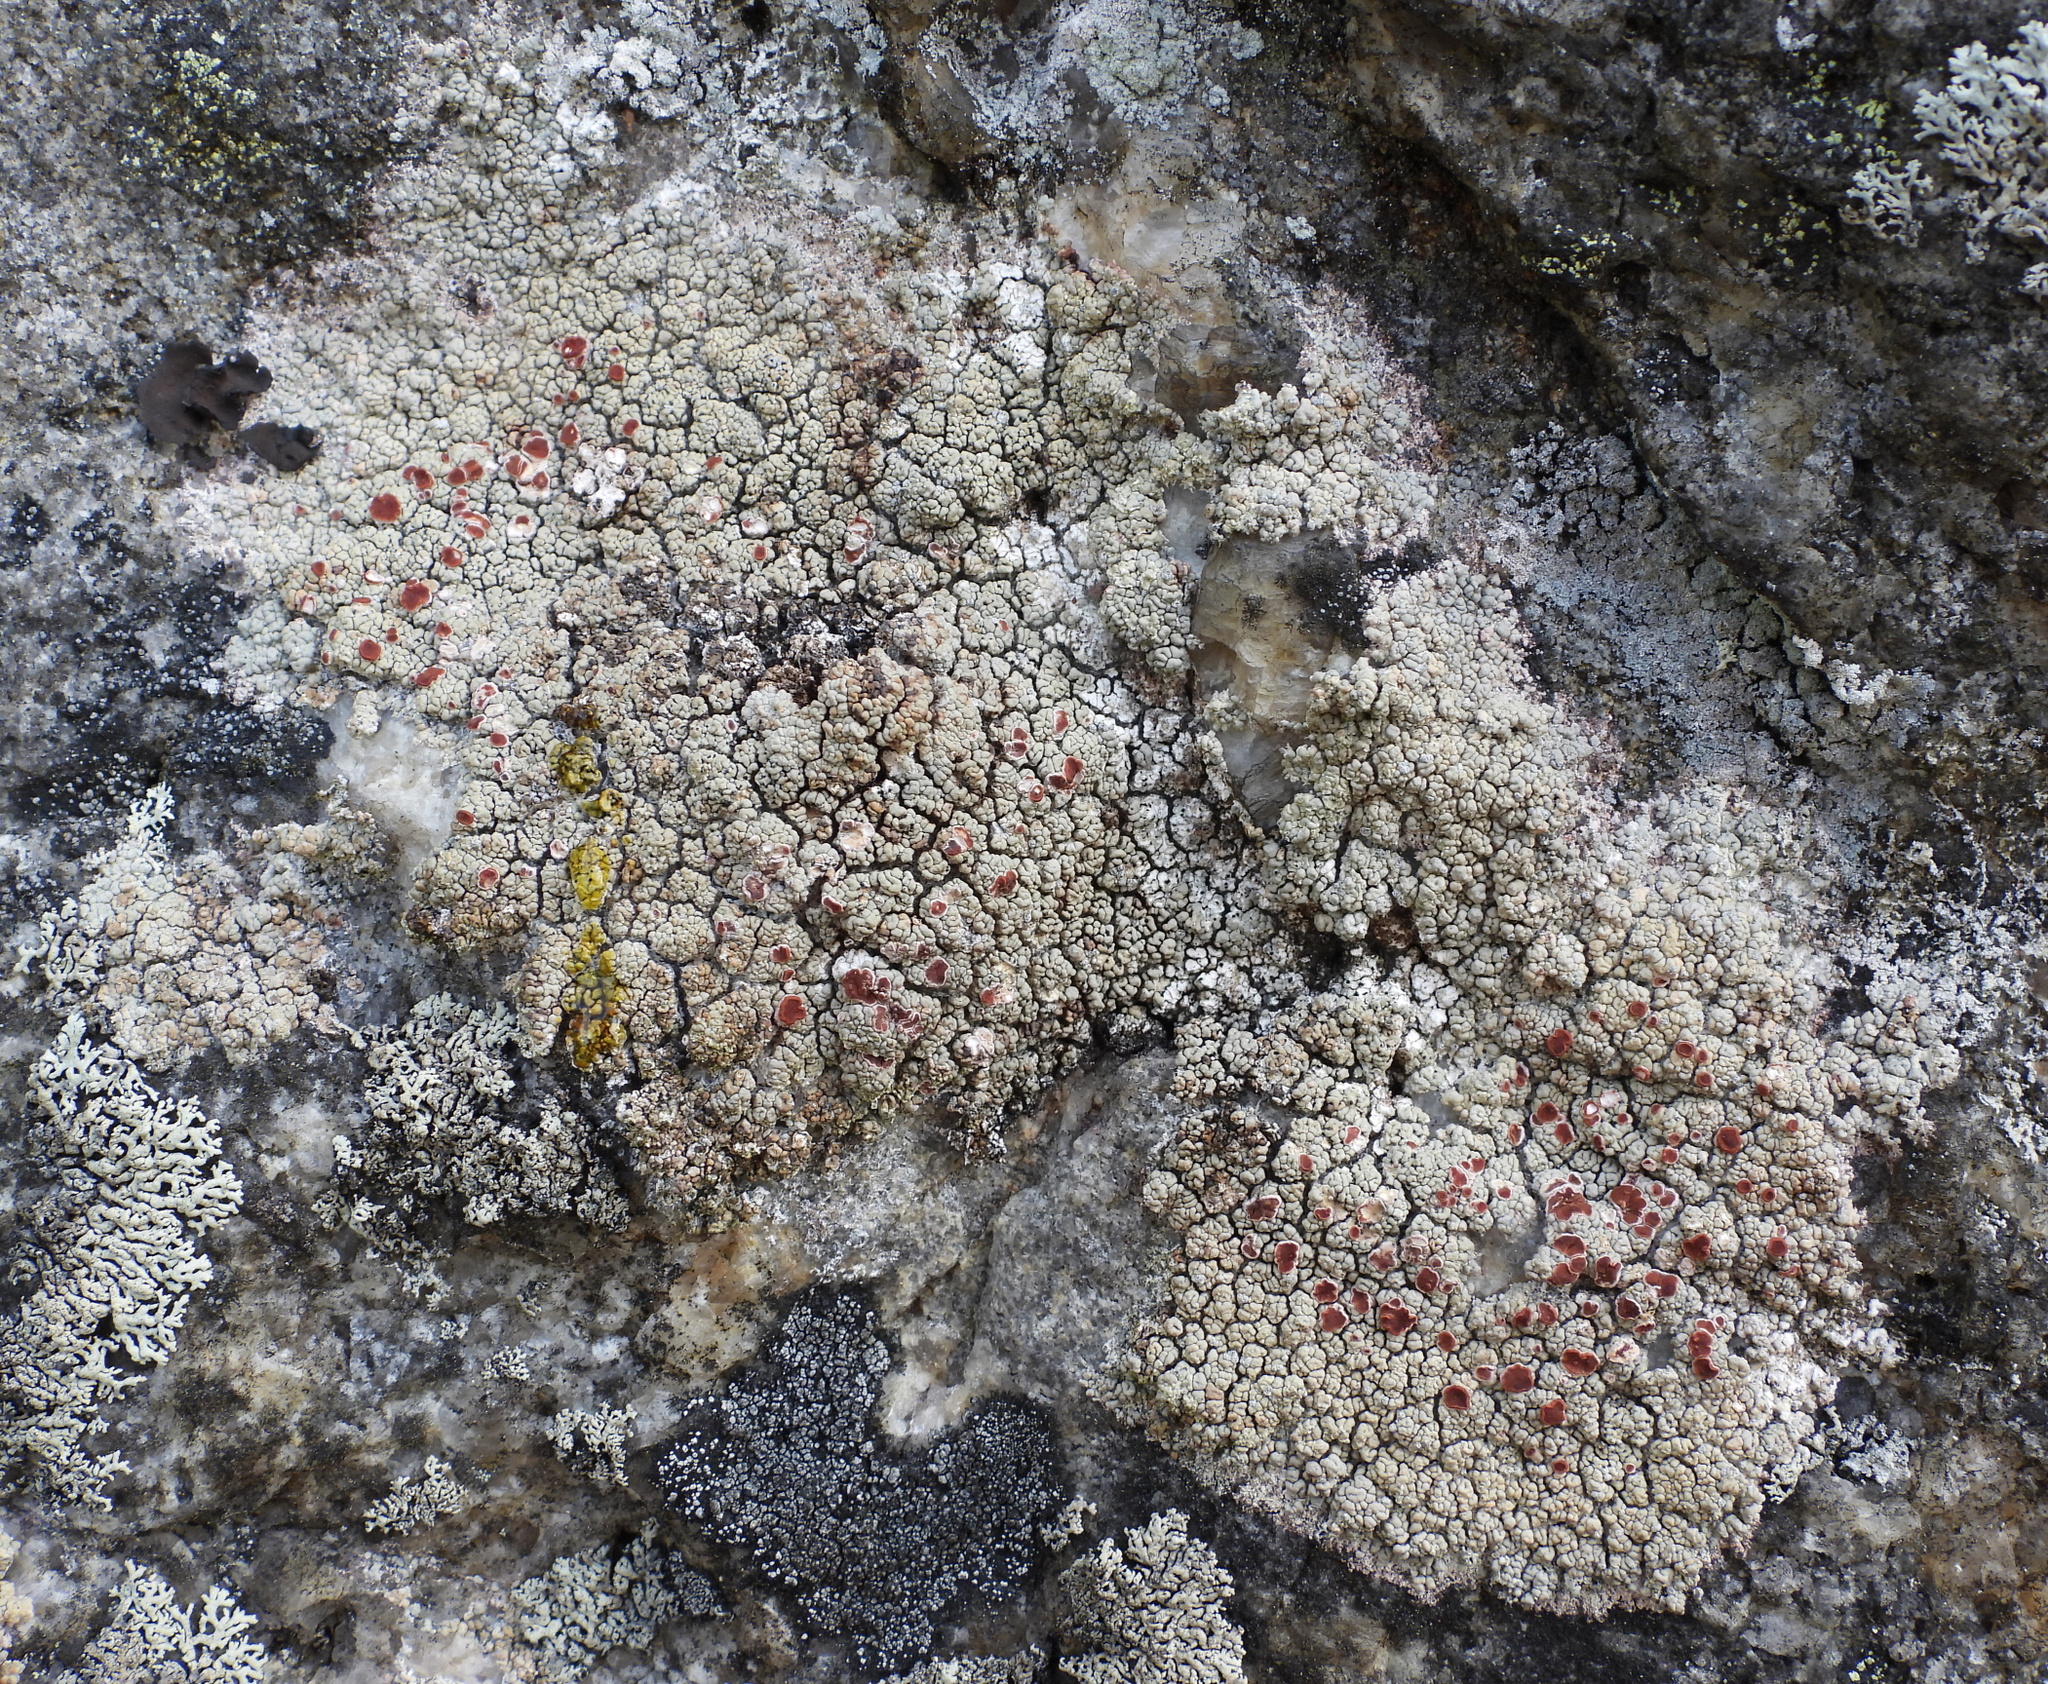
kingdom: Fungi
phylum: Ascomycota
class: Lecanoromycetes
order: Umbilicariales
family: Ophioparmaceae
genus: Ophioparma
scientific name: Ophioparma ventosa
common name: Blood-spot
